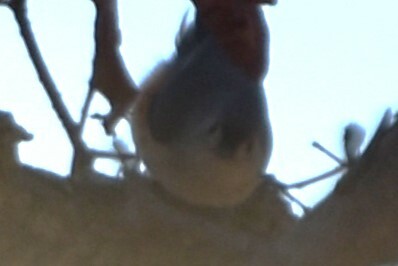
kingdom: Animalia
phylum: Chordata
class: Aves
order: Passeriformes
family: Paridae
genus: Baeolophus
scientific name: Baeolophus bicolor
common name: Tufted titmouse
